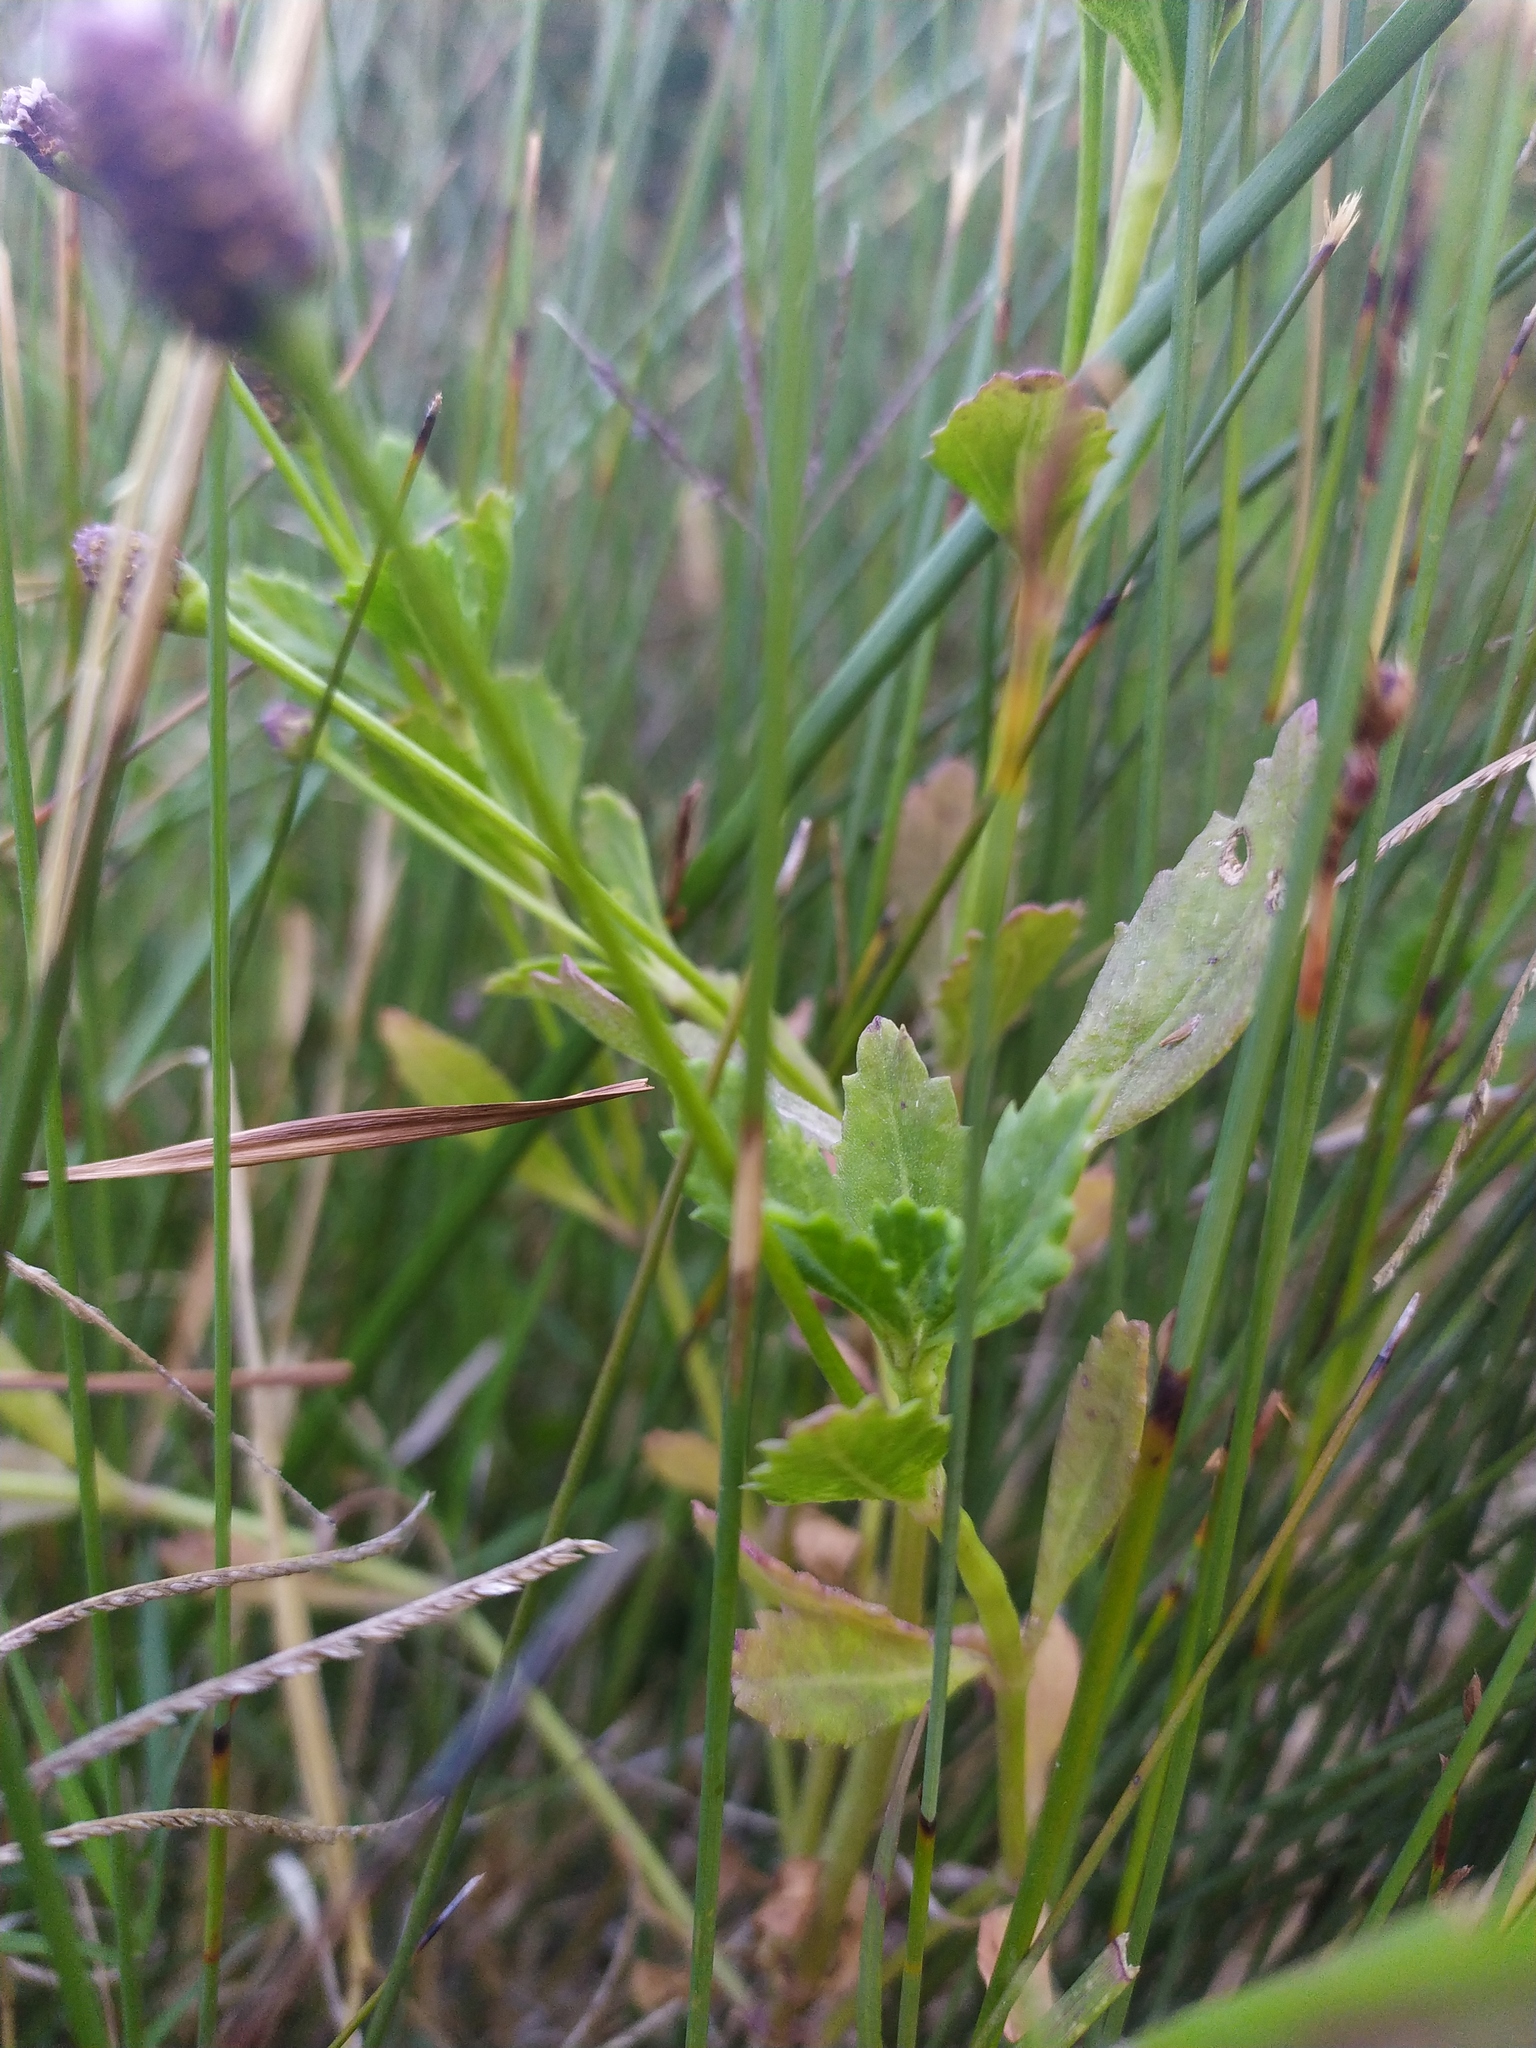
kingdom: Plantae
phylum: Tracheophyta
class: Magnoliopsida
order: Lamiales
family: Verbenaceae
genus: Phyla
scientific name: Phyla nodiflora
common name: Frogfruit
